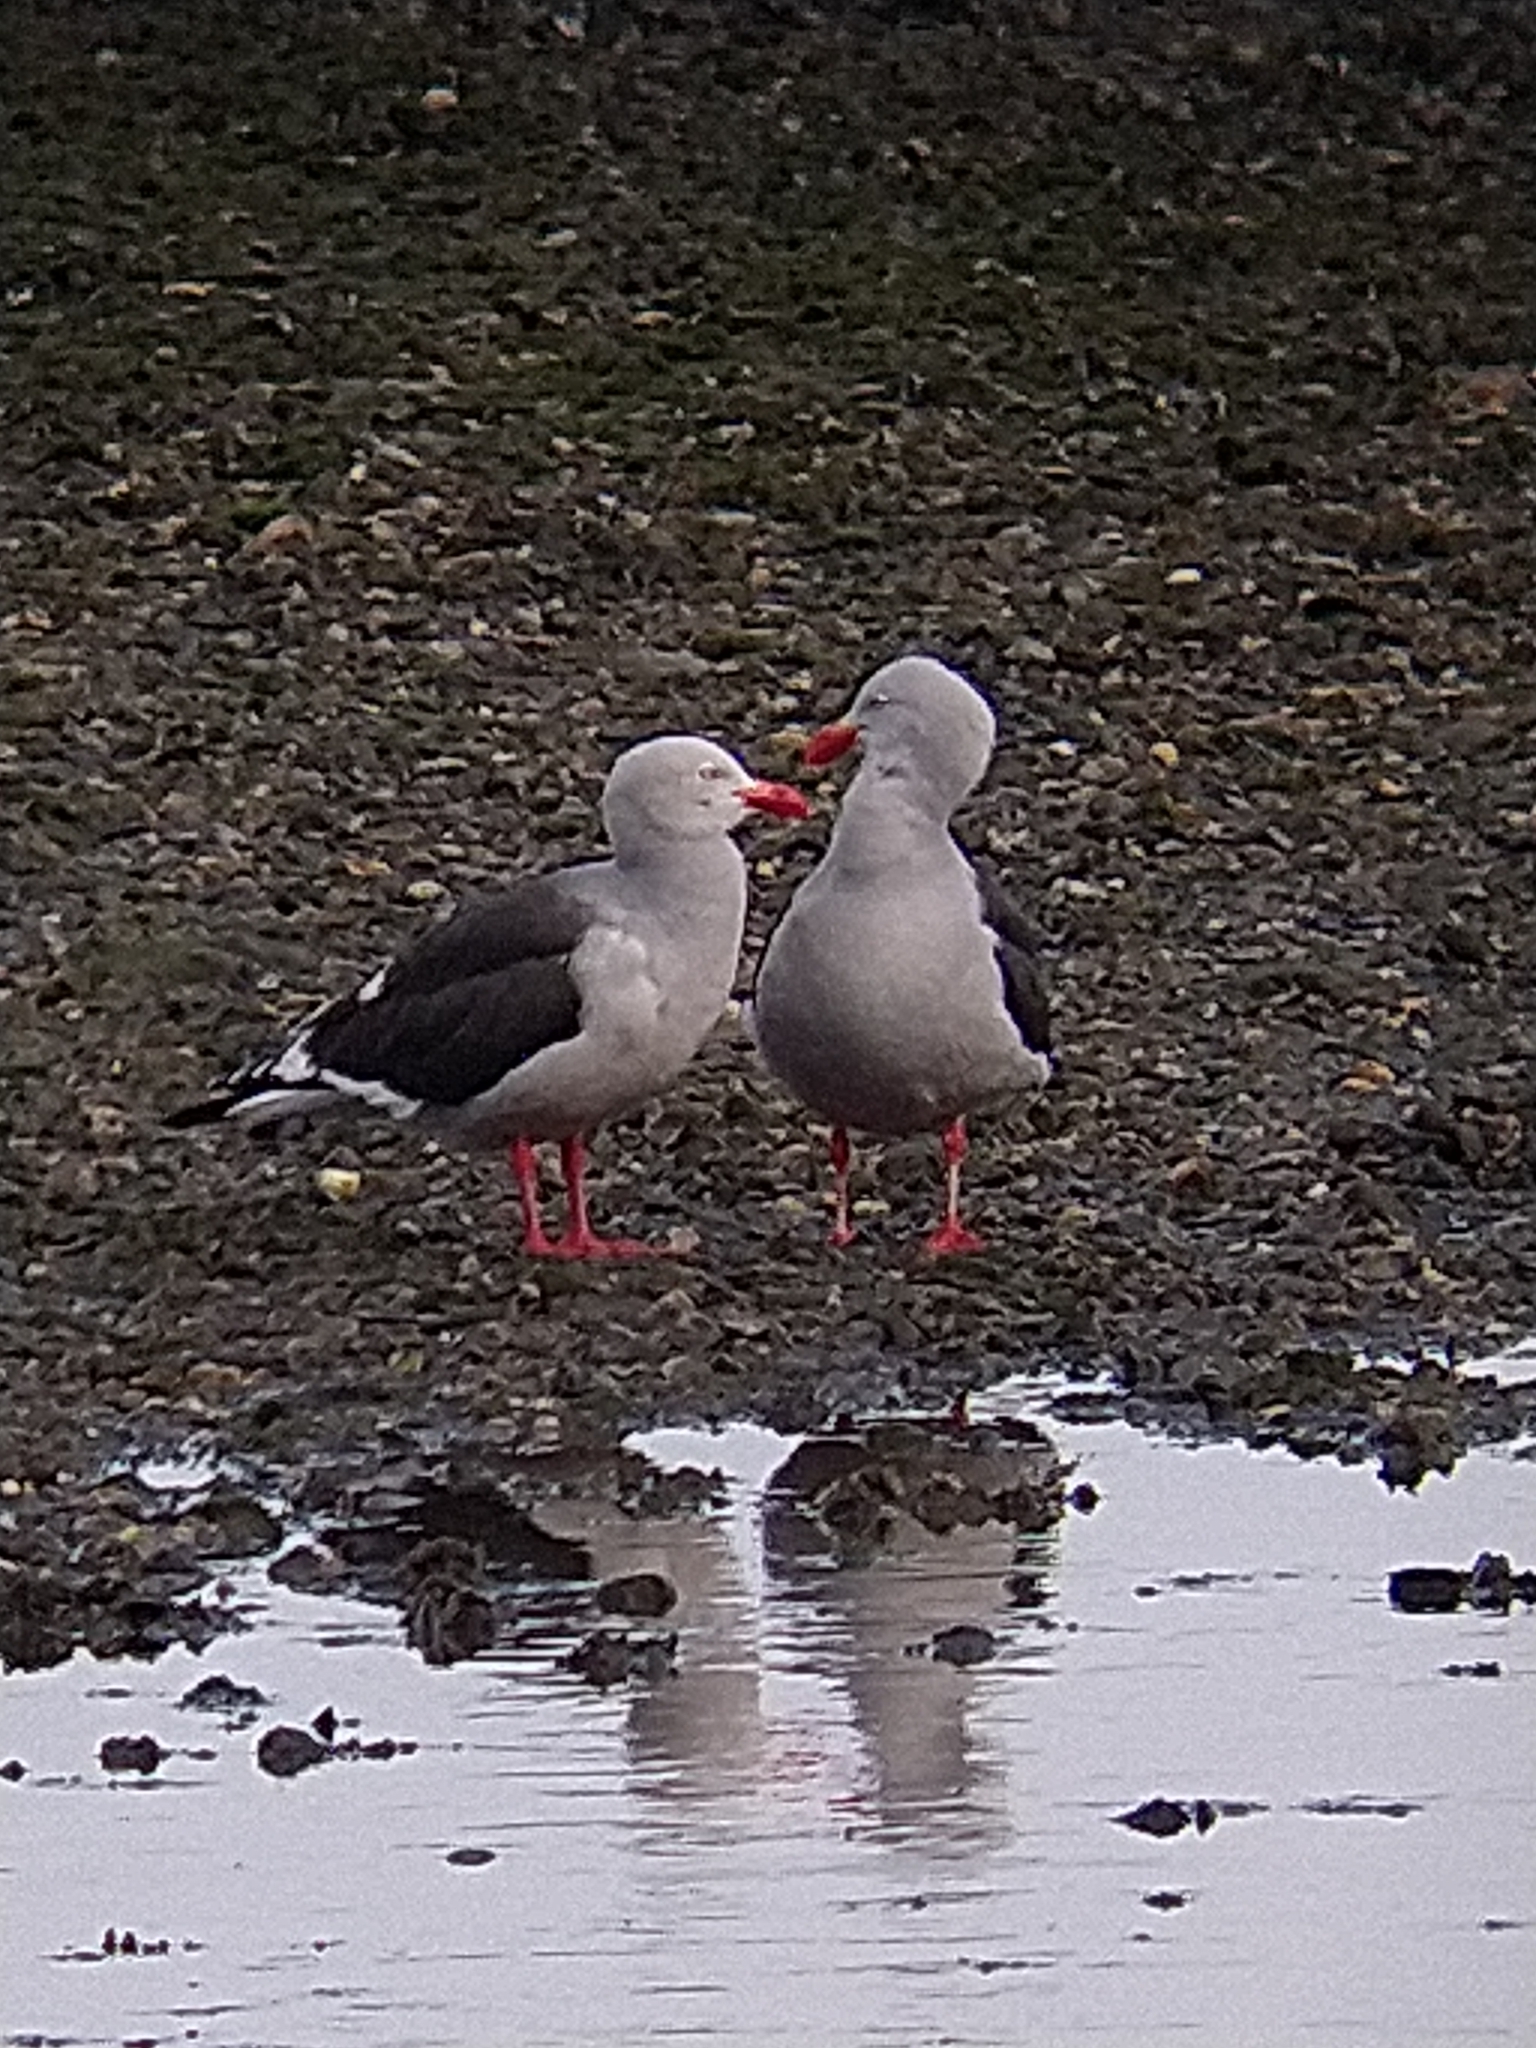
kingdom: Animalia
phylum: Chordata
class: Aves
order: Charadriiformes
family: Laridae
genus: Leucophaeus
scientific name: Leucophaeus scoresbii
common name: Dolphin gull
